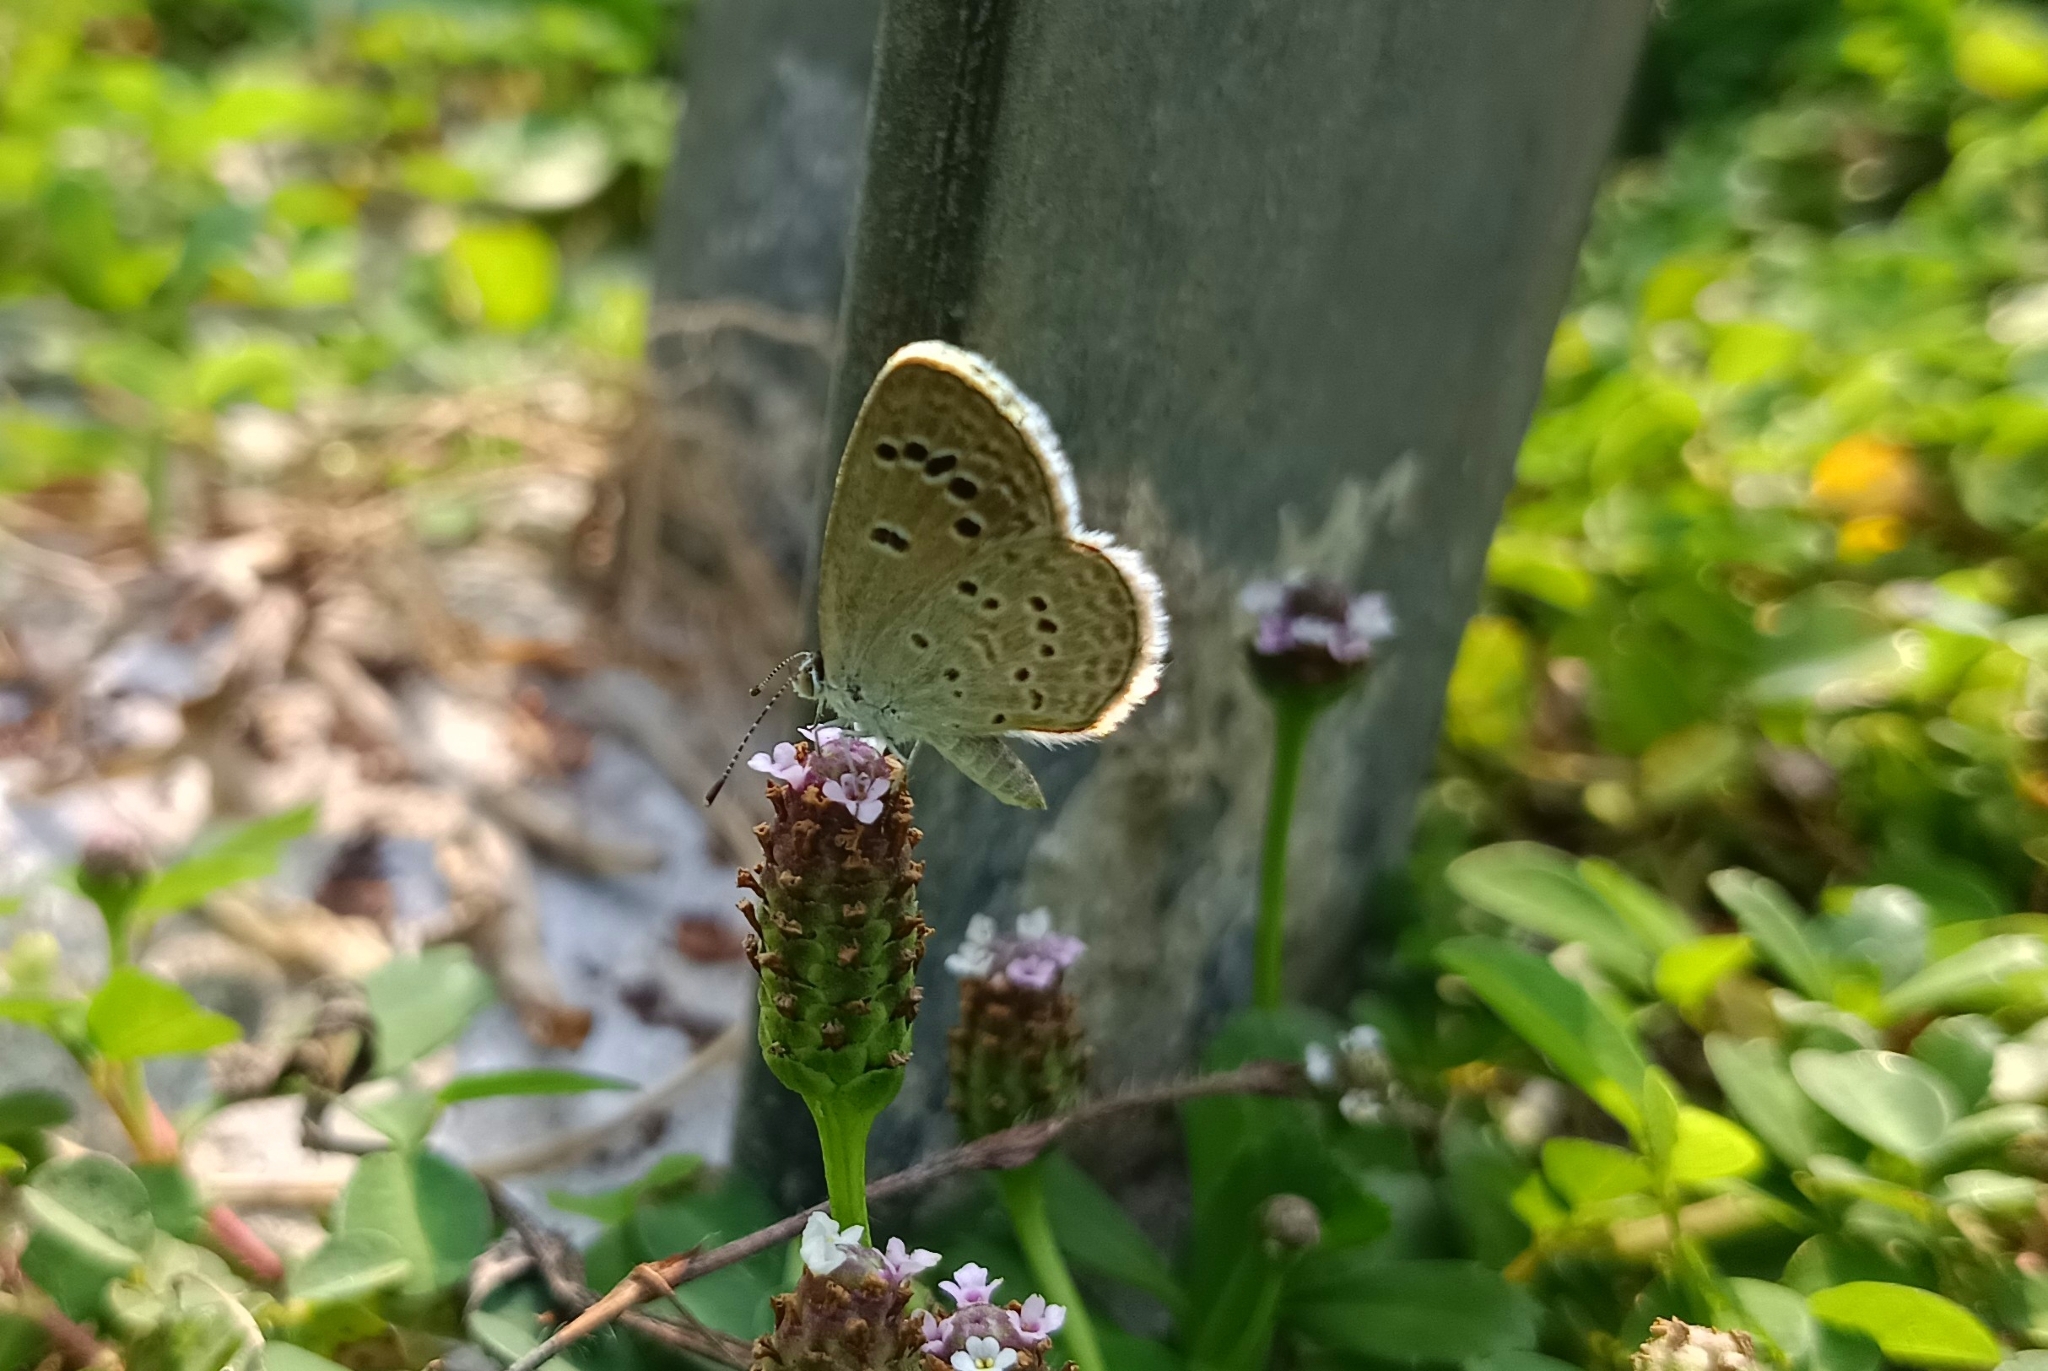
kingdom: Animalia
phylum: Arthropoda
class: Insecta
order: Lepidoptera
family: Lycaenidae
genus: Zizina
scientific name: Zizina otis
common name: Lesser grass blue
